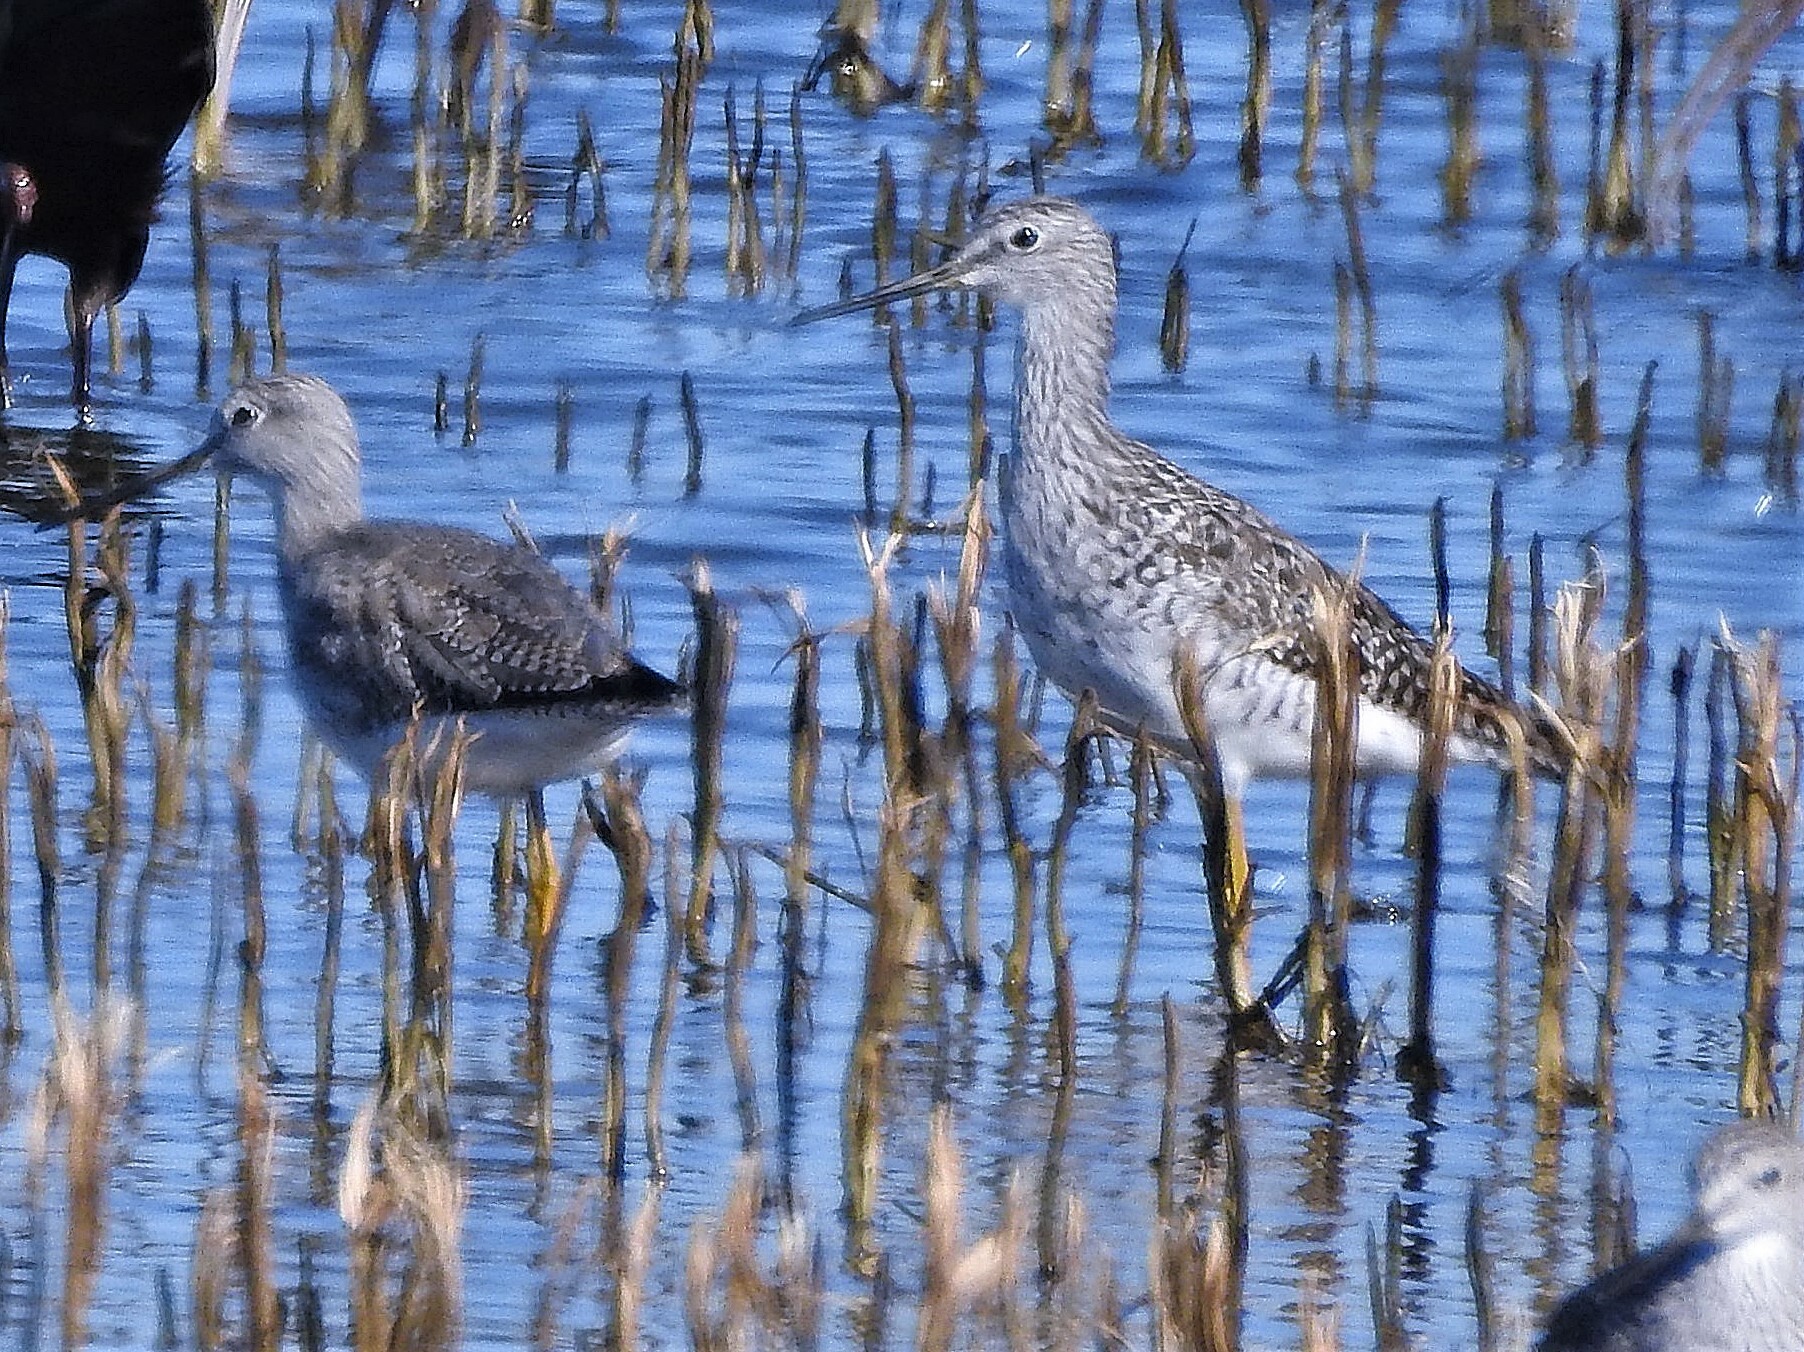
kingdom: Animalia
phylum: Chordata
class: Aves
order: Charadriiformes
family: Scolopacidae
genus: Tringa
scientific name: Tringa melanoleuca
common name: Greater yellowlegs
